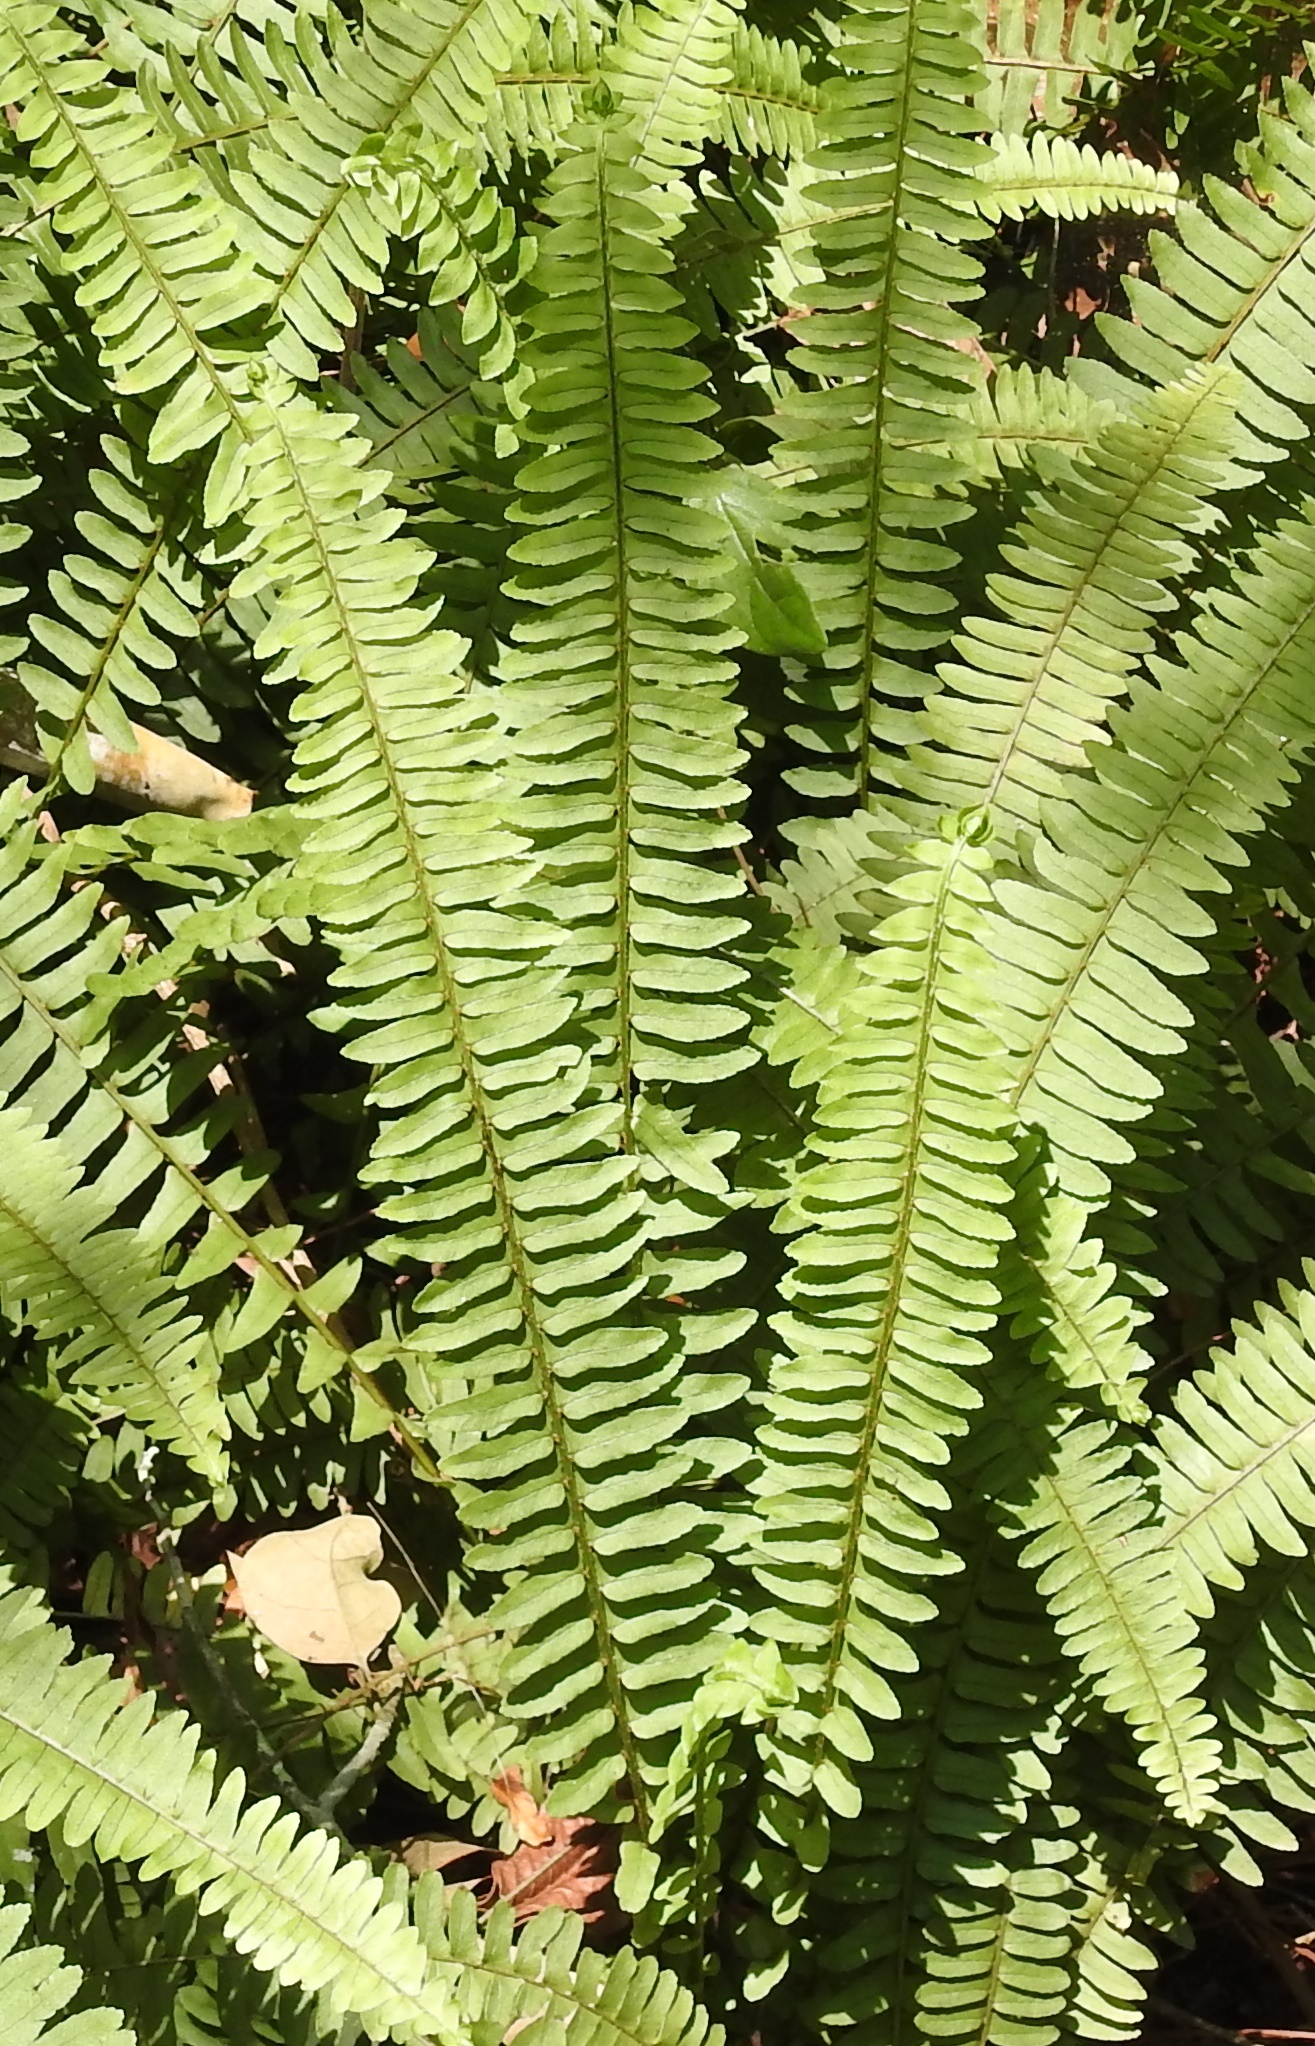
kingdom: Plantae
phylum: Tracheophyta
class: Polypodiopsida
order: Polypodiales
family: Nephrolepidaceae
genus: Nephrolepis
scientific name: Nephrolepis rivularis
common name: Streamside swordfern
